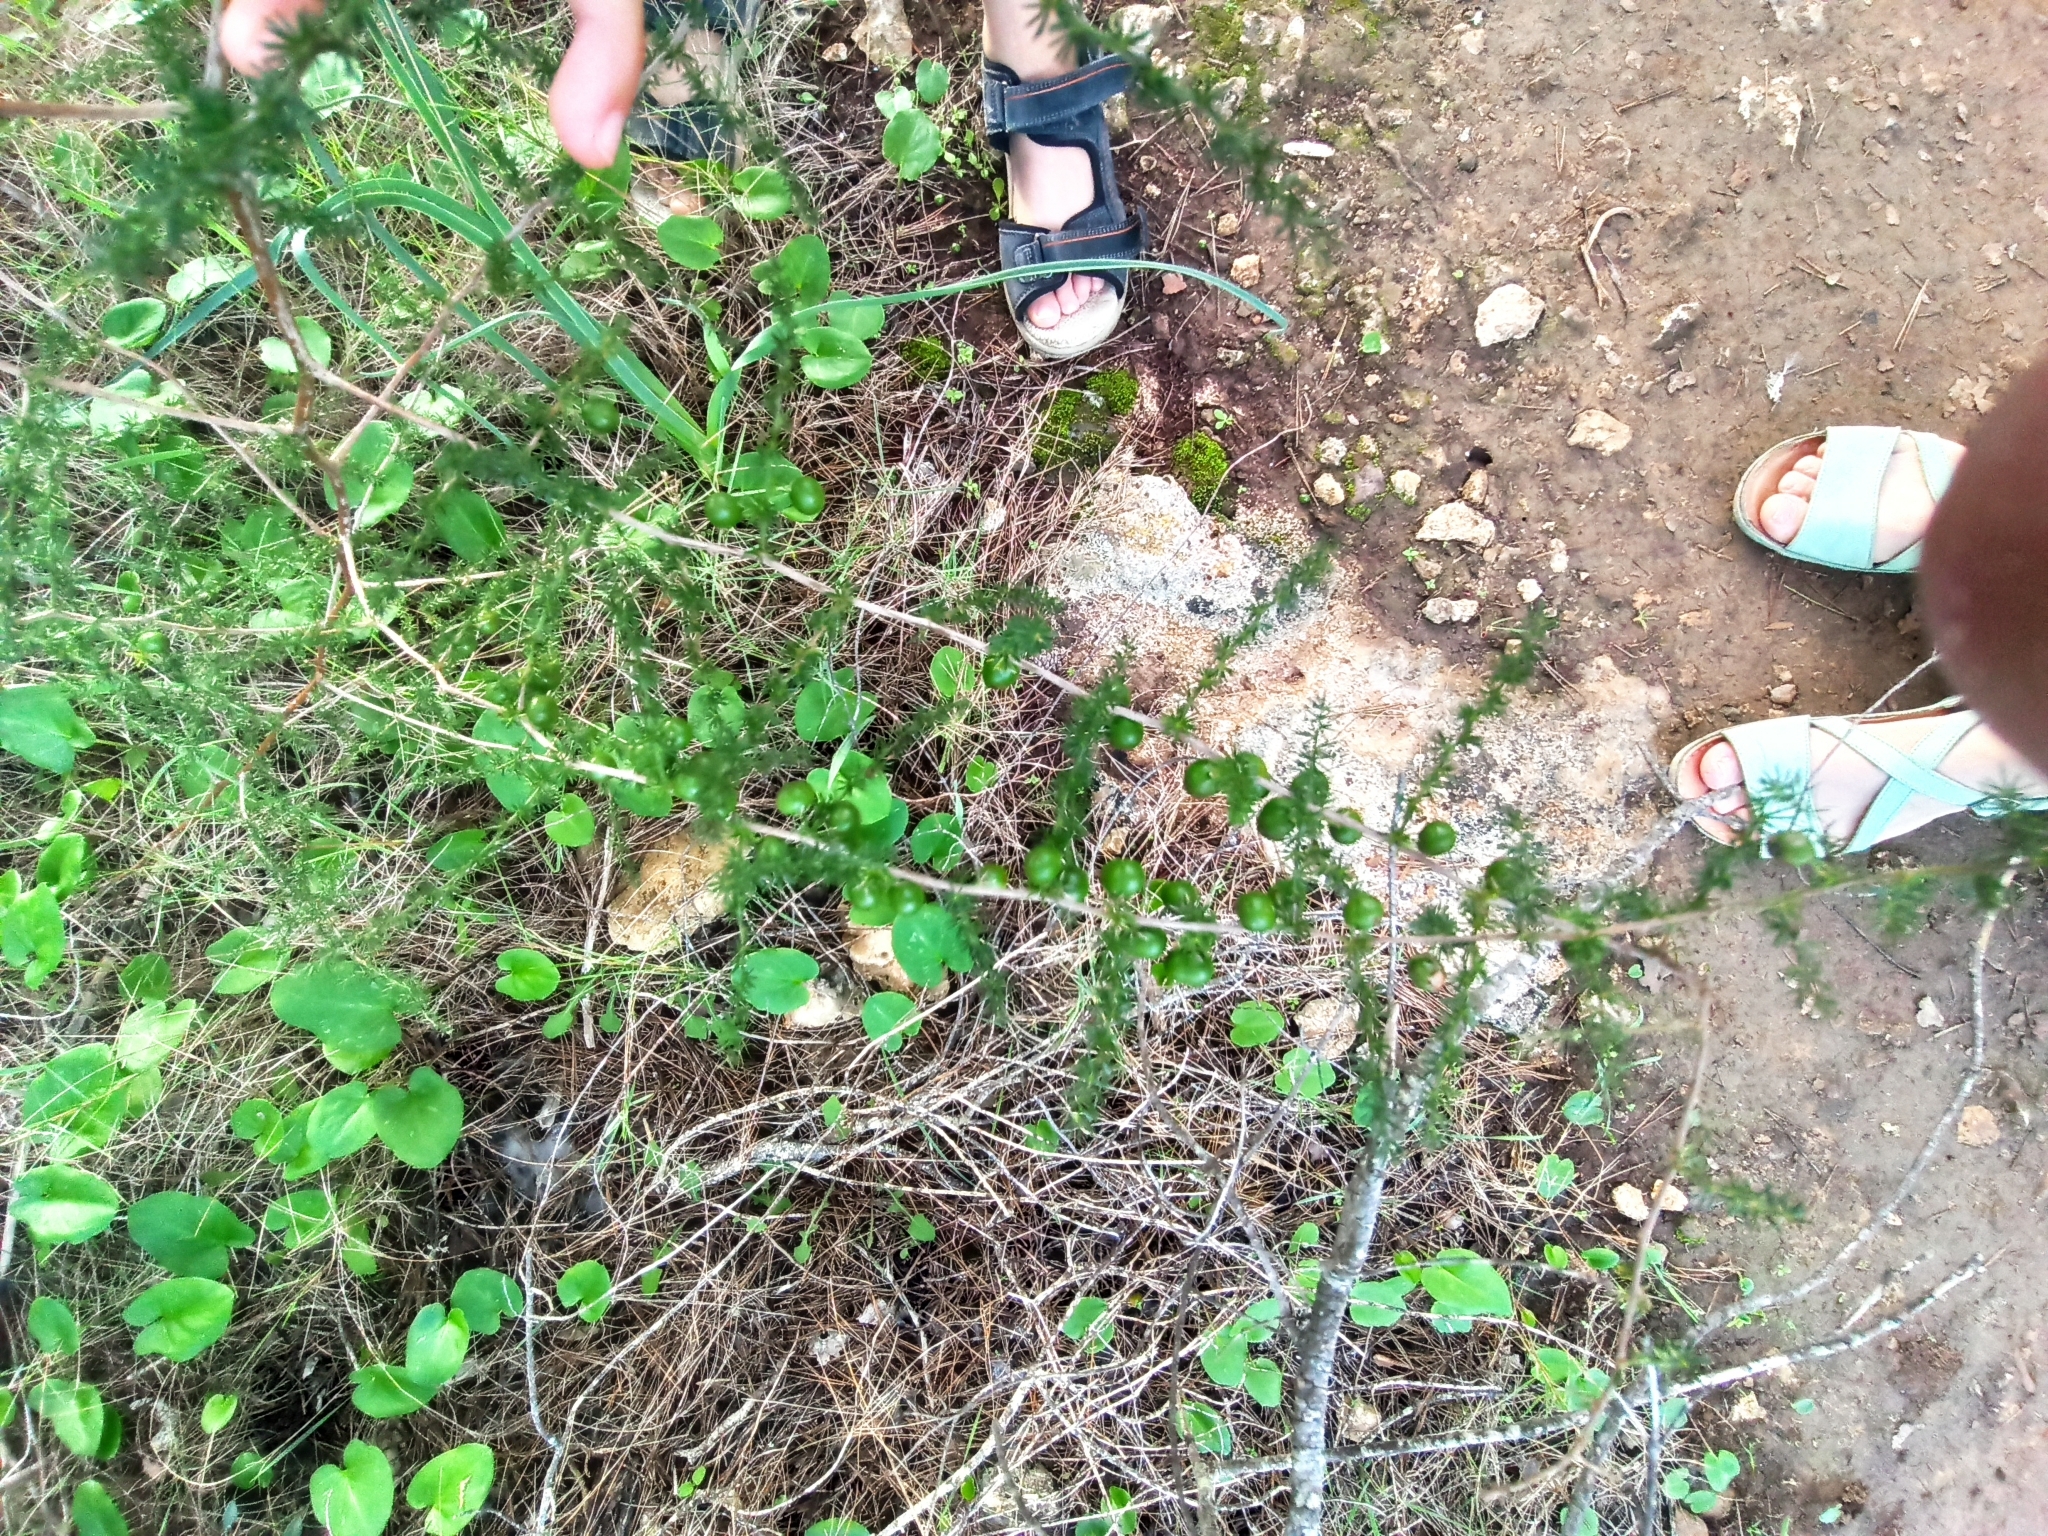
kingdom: Plantae
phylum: Tracheophyta
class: Liliopsida
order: Asparagales
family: Asparagaceae
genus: Asparagus
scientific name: Asparagus acutifolius
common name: Wild asparagus
